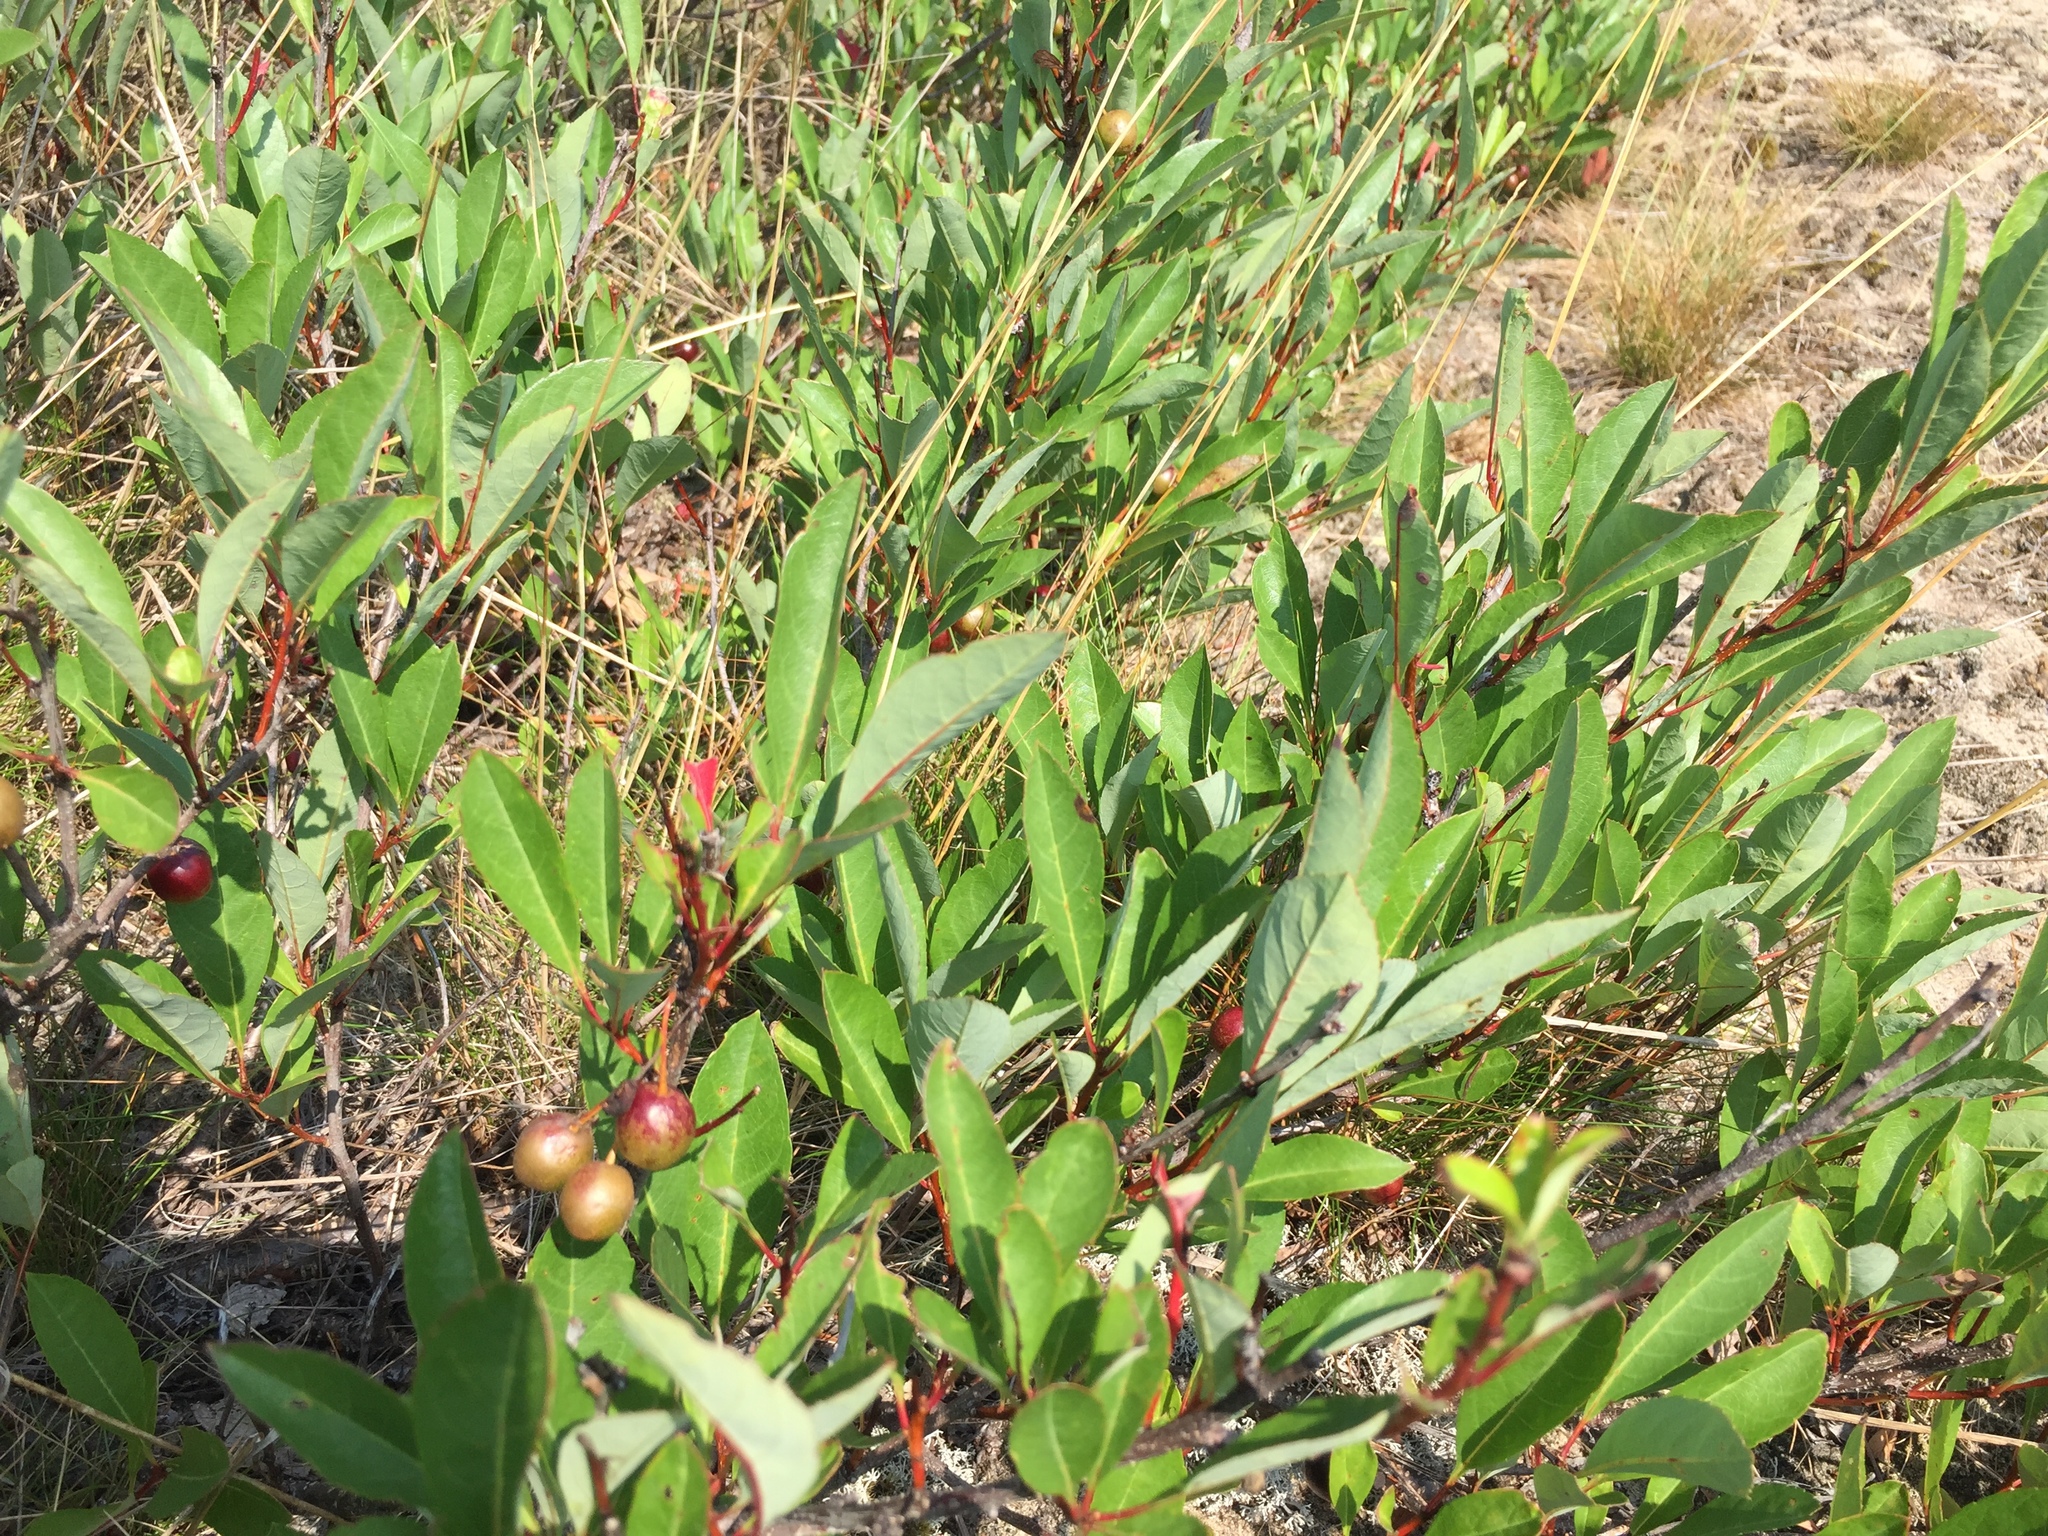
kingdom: Plantae
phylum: Tracheophyta
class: Magnoliopsida
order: Rosales
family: Rosaceae
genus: Prunus
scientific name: Prunus pumila
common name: Dwarf cherry
